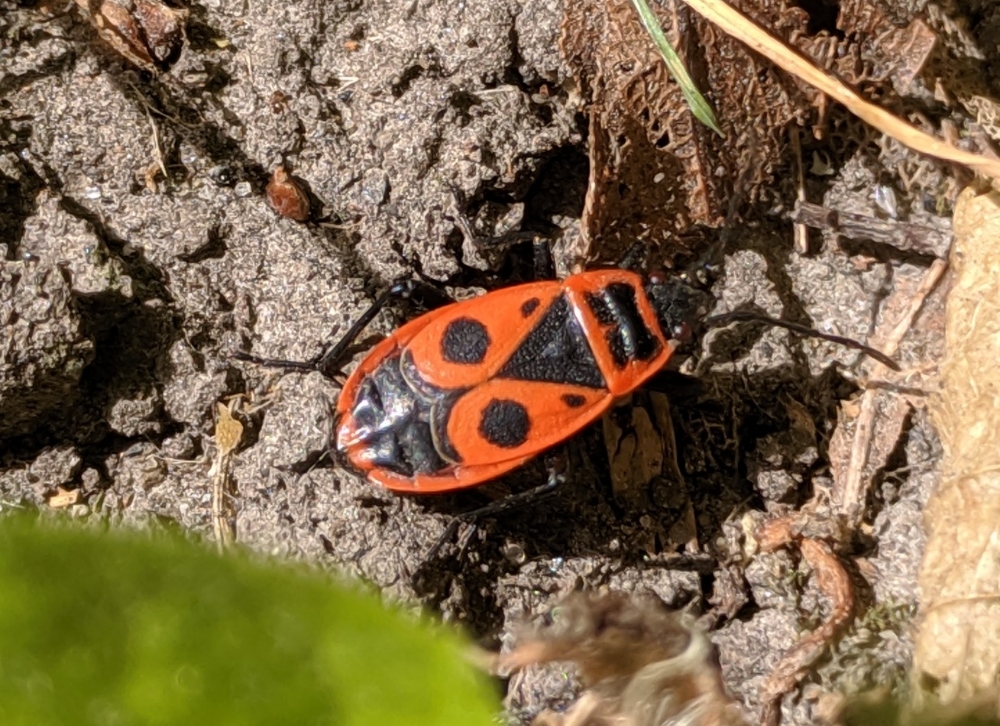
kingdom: Animalia
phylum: Arthropoda
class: Insecta
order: Hemiptera
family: Pyrrhocoridae
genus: Pyrrhocoris
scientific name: Pyrrhocoris apterus
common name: Firebug
